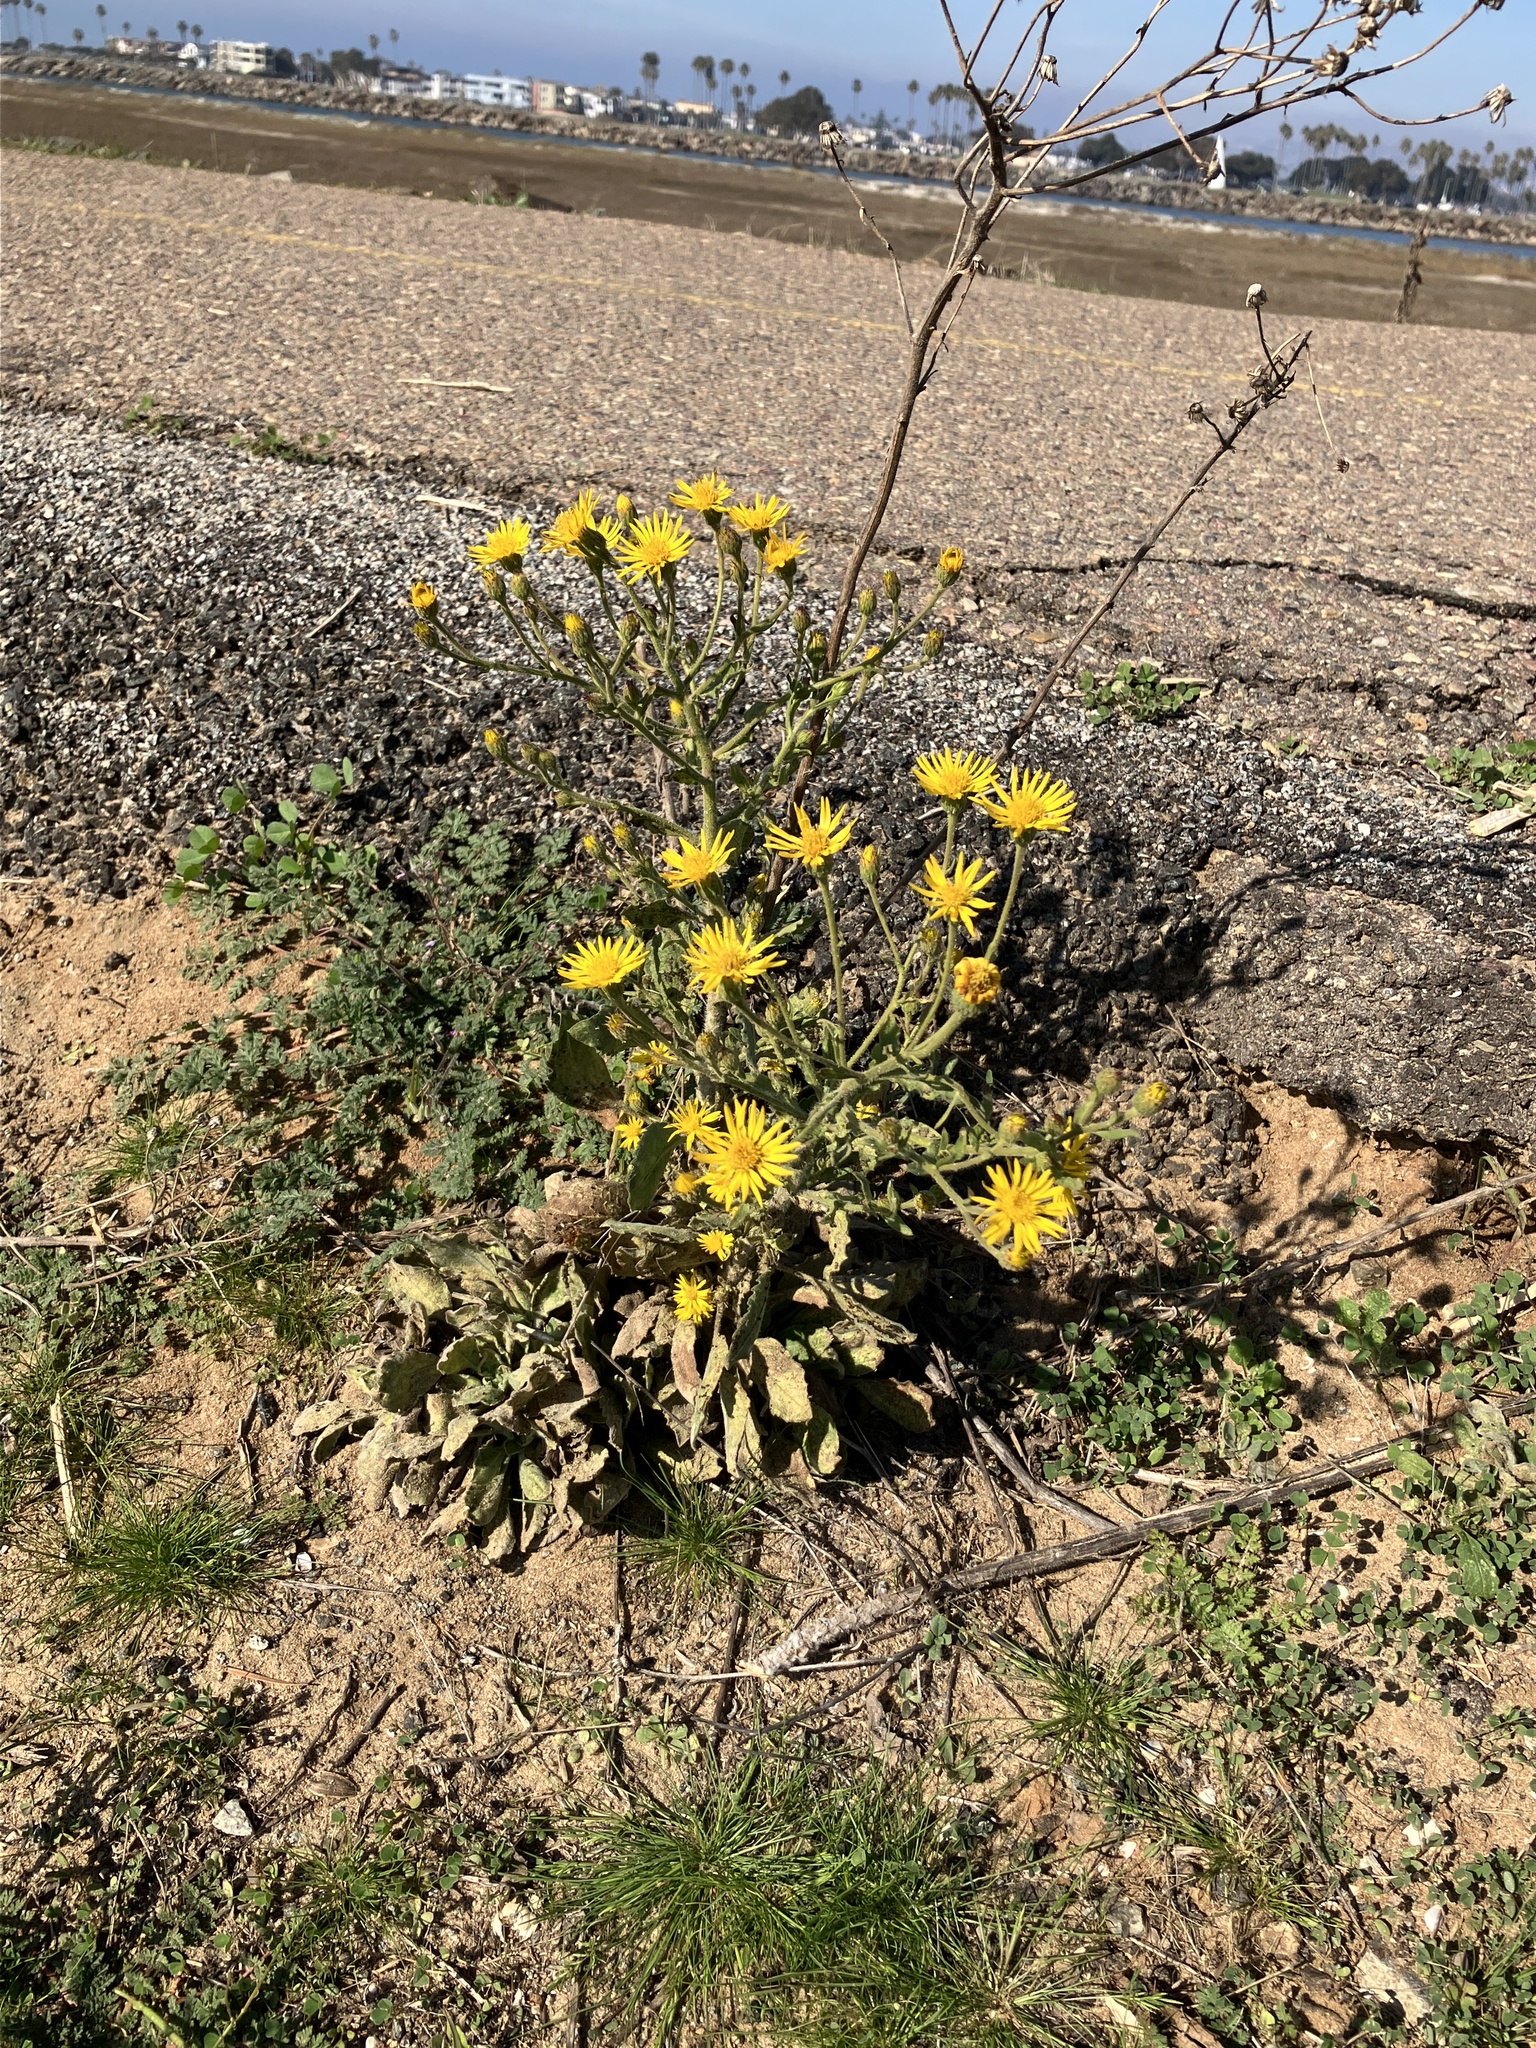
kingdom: Plantae
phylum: Tracheophyta
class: Magnoliopsida
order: Asterales
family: Asteraceae
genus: Heterotheca
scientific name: Heterotheca grandiflora
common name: Telegraphweed
